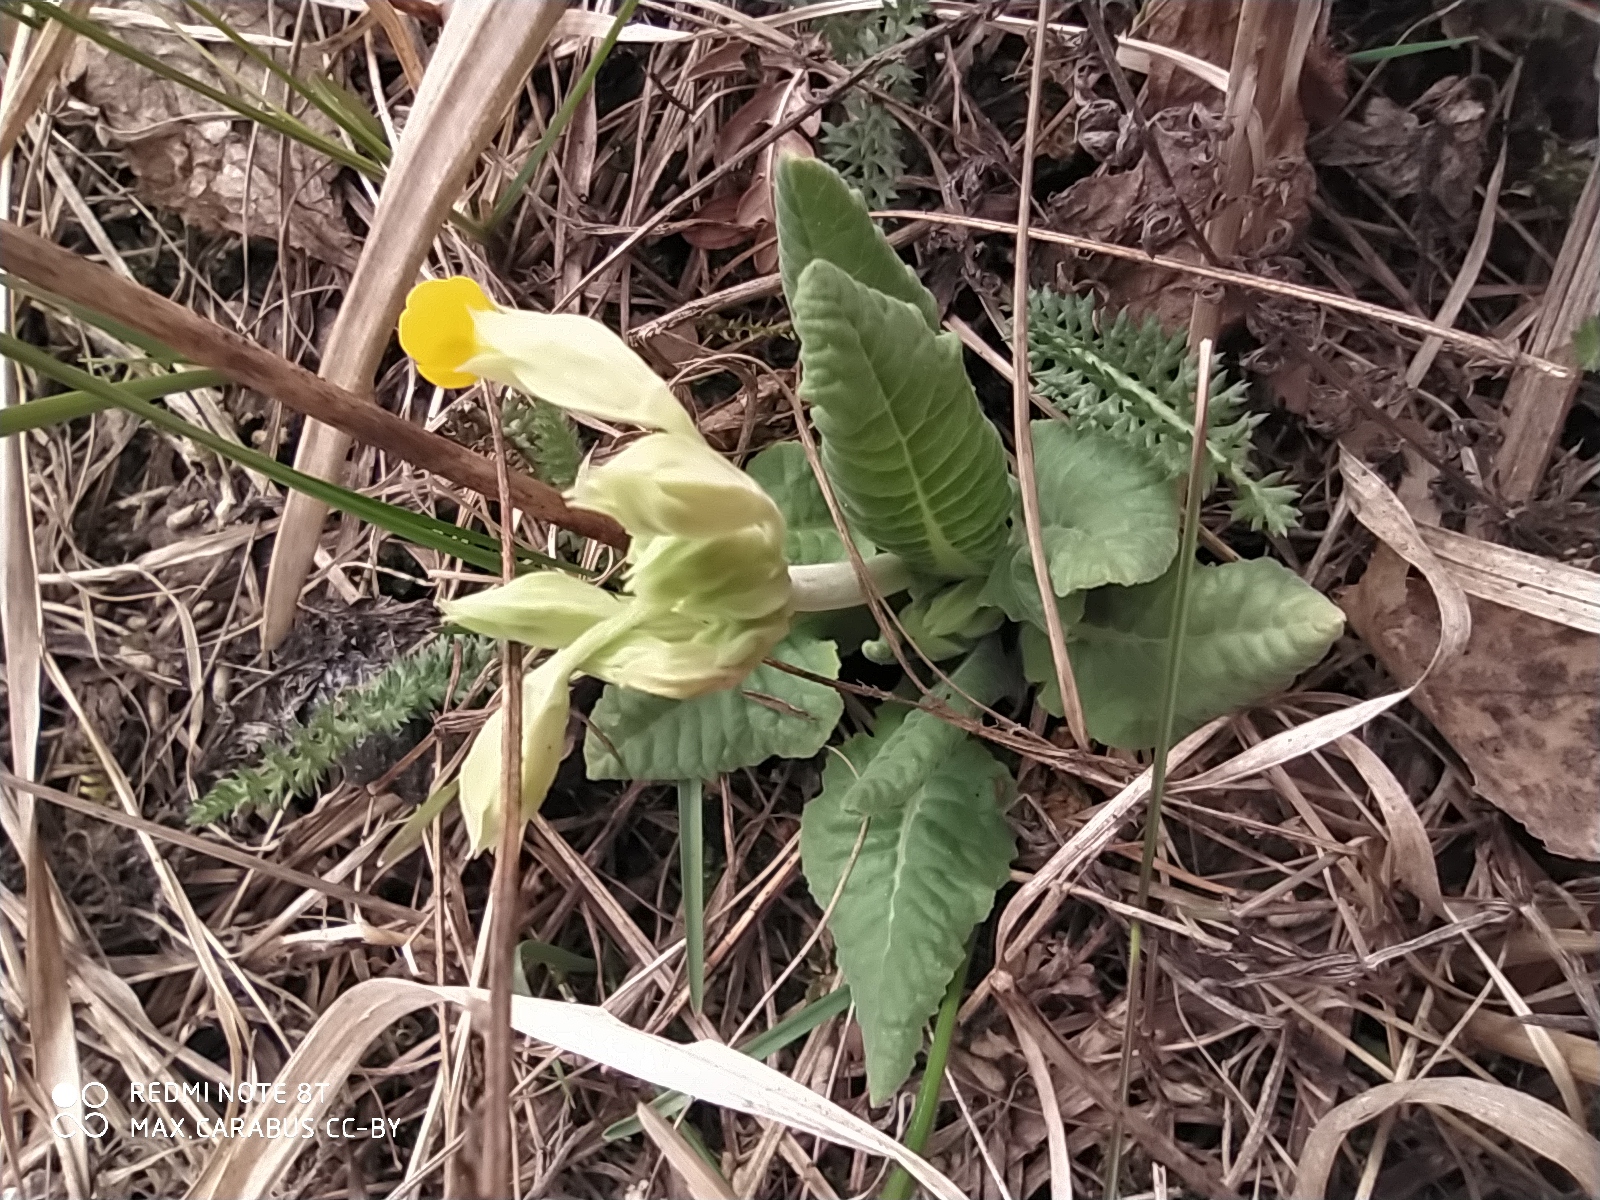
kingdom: Plantae
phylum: Tracheophyta
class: Magnoliopsida
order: Ericales
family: Primulaceae
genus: Primula
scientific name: Primula veris
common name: Cowslip
